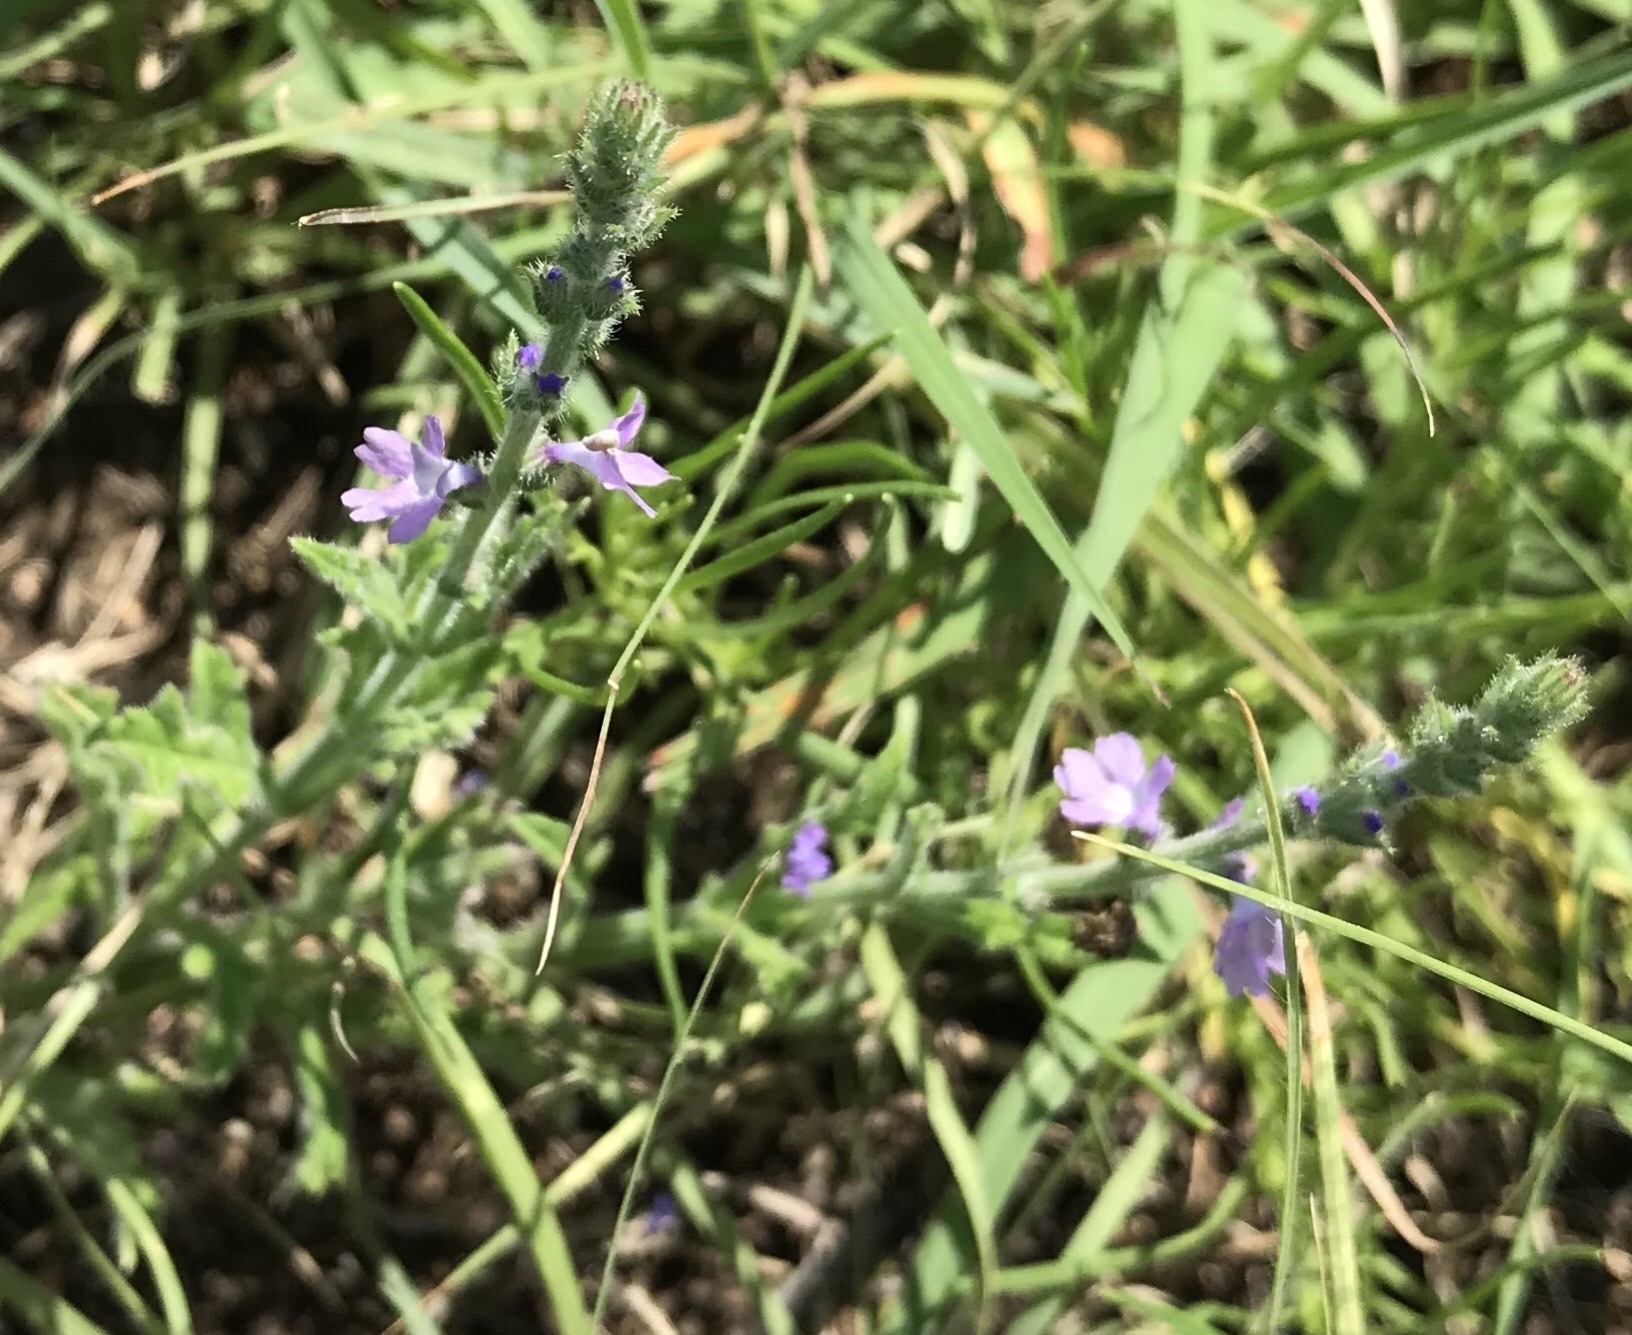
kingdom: Plantae
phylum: Tracheophyta
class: Magnoliopsida
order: Lamiales
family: Verbenaceae
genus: Verbena
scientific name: Verbena canescens
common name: Gray vervain
